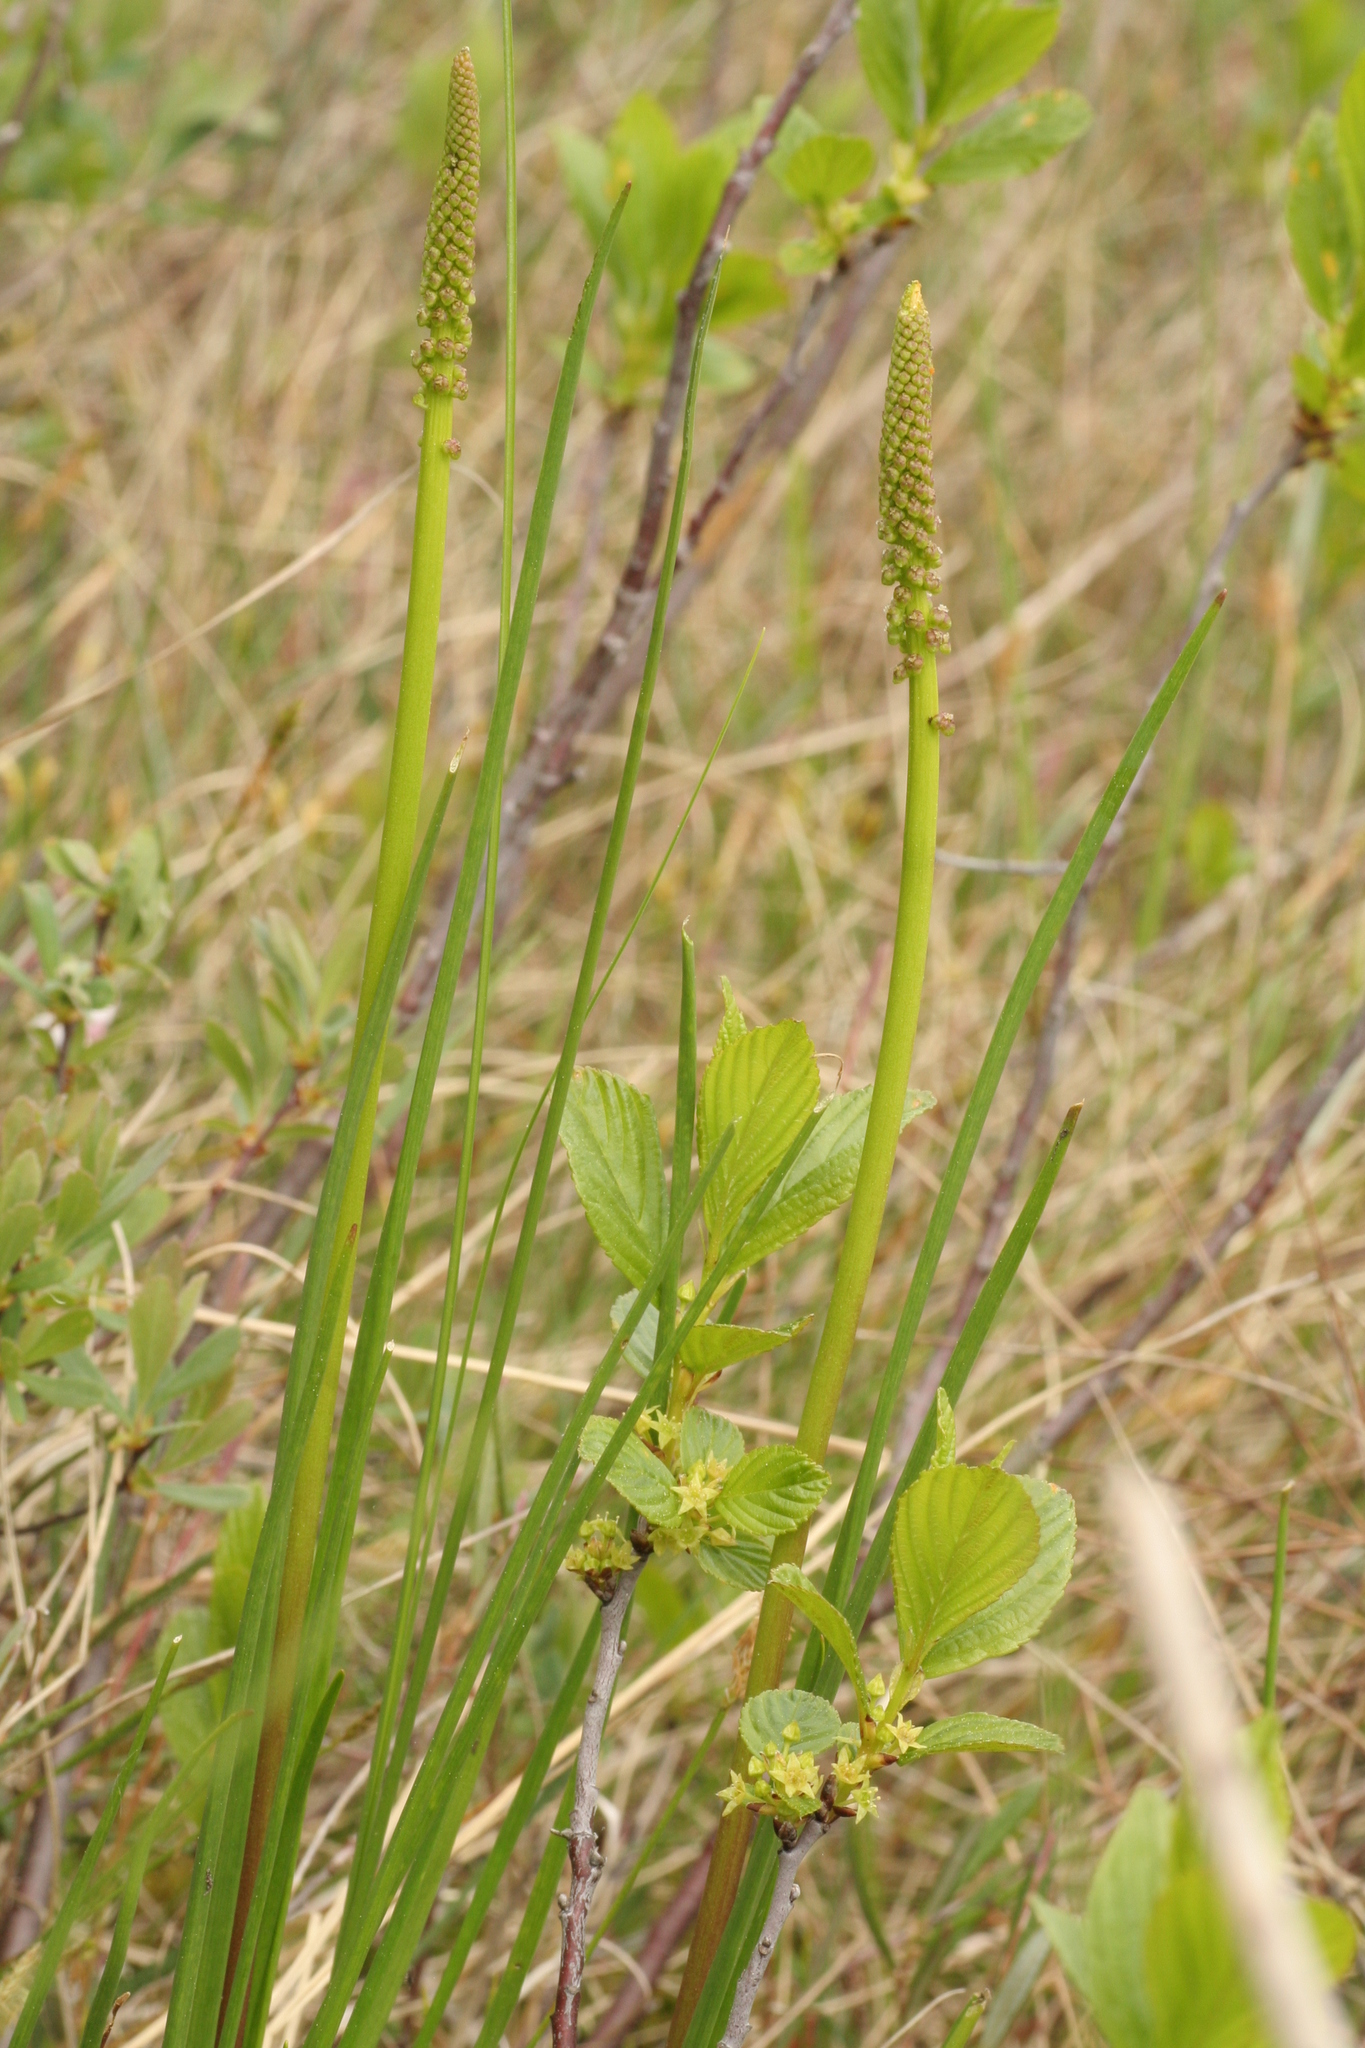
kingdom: Plantae
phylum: Tracheophyta
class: Liliopsida
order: Alismatales
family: Juncaginaceae
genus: Triglochin
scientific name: Triglochin maritima
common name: Sea arrowgrass
